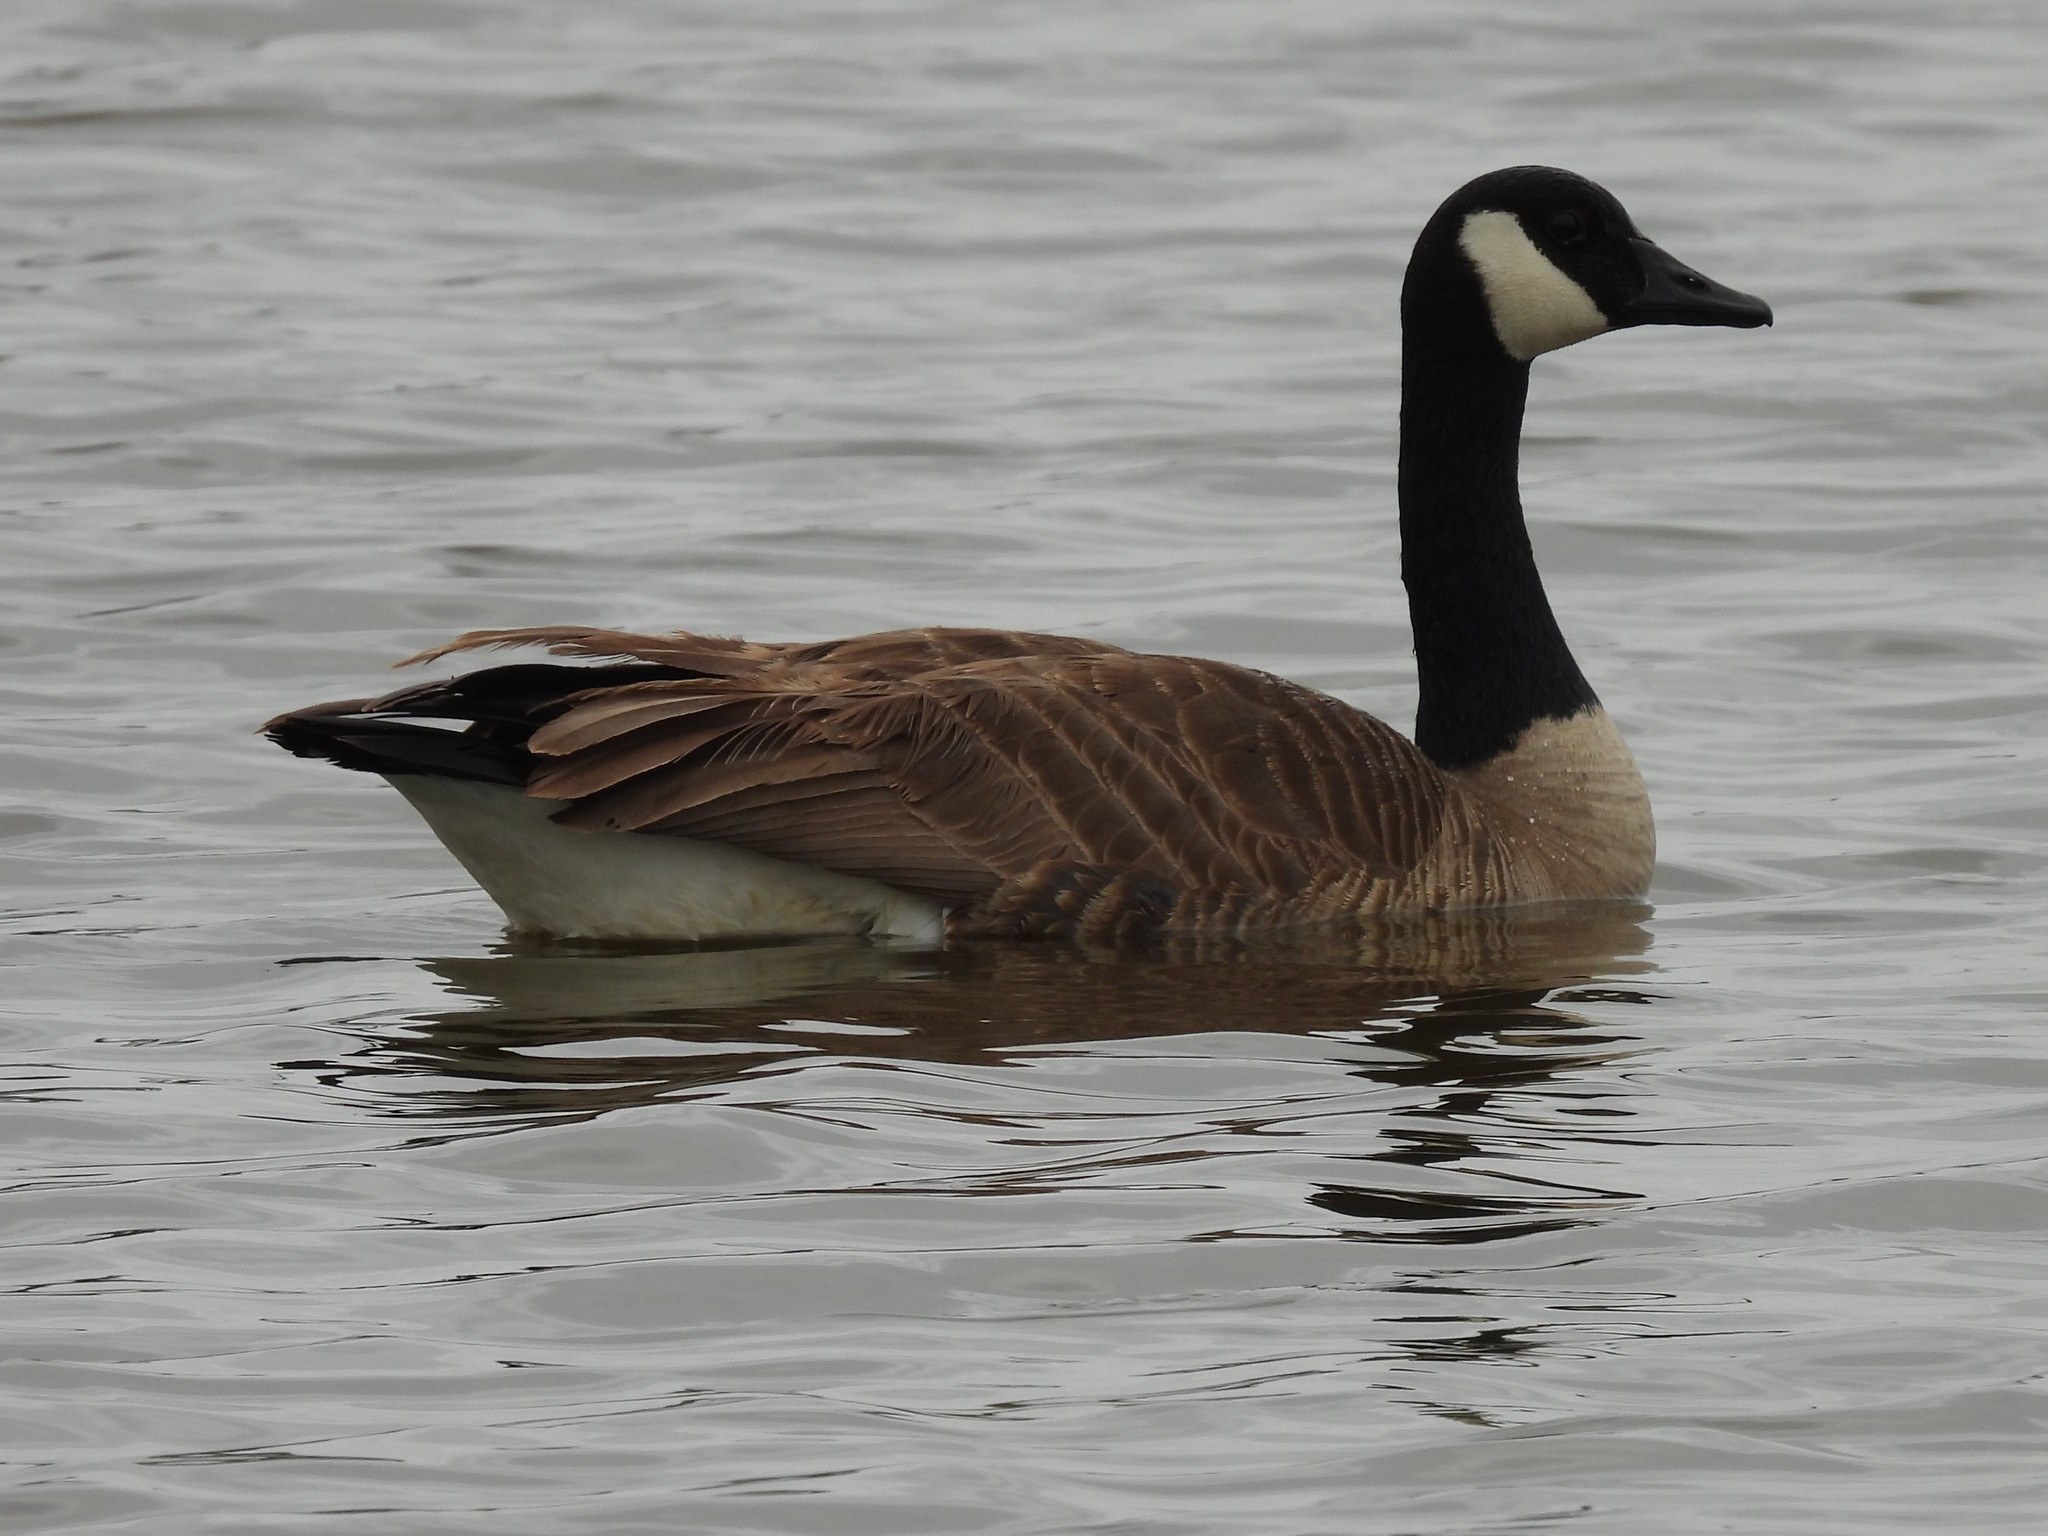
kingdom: Animalia
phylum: Chordata
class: Aves
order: Anseriformes
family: Anatidae
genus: Branta
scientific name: Branta canadensis
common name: Canada goose
